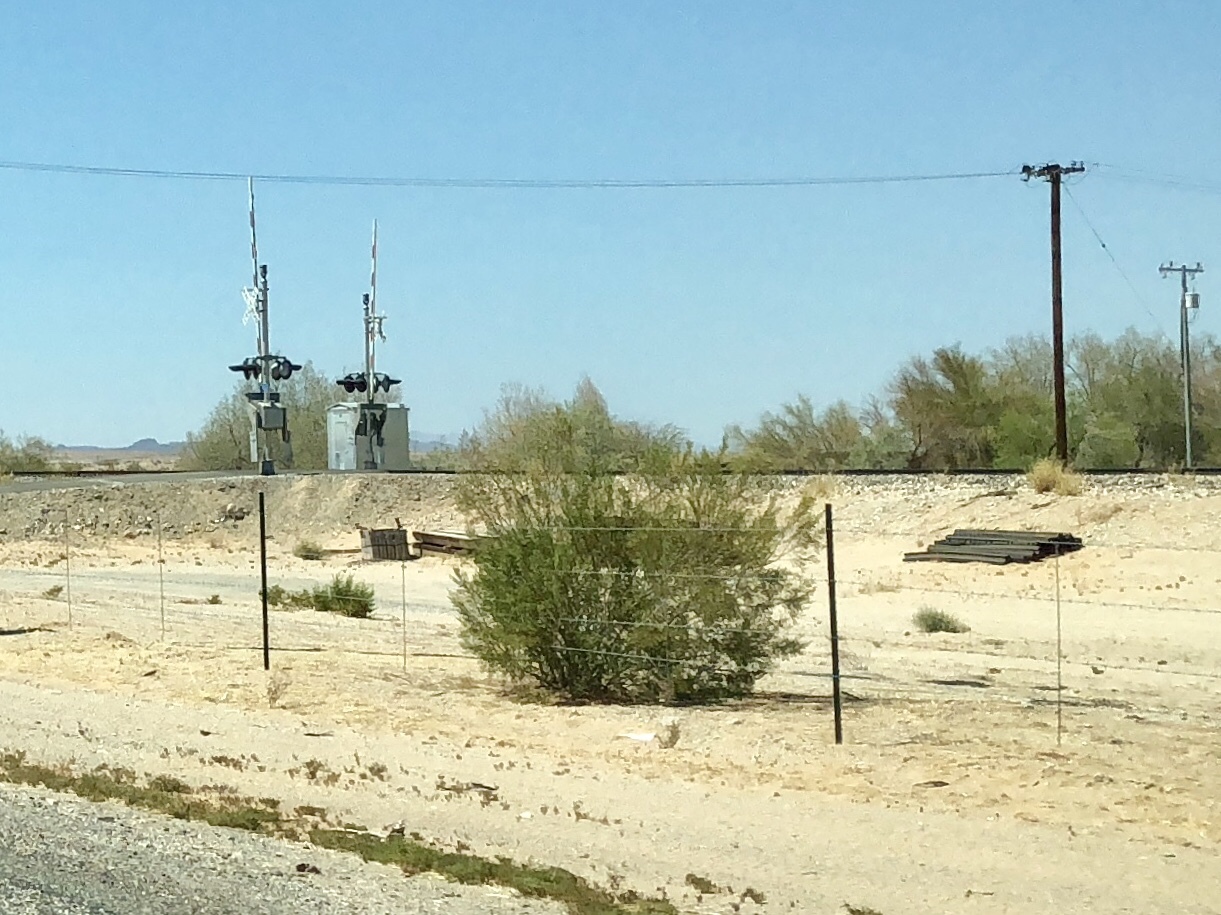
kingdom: Plantae
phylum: Tracheophyta
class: Magnoliopsida
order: Zygophyllales
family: Zygophyllaceae
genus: Larrea
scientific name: Larrea tridentata
